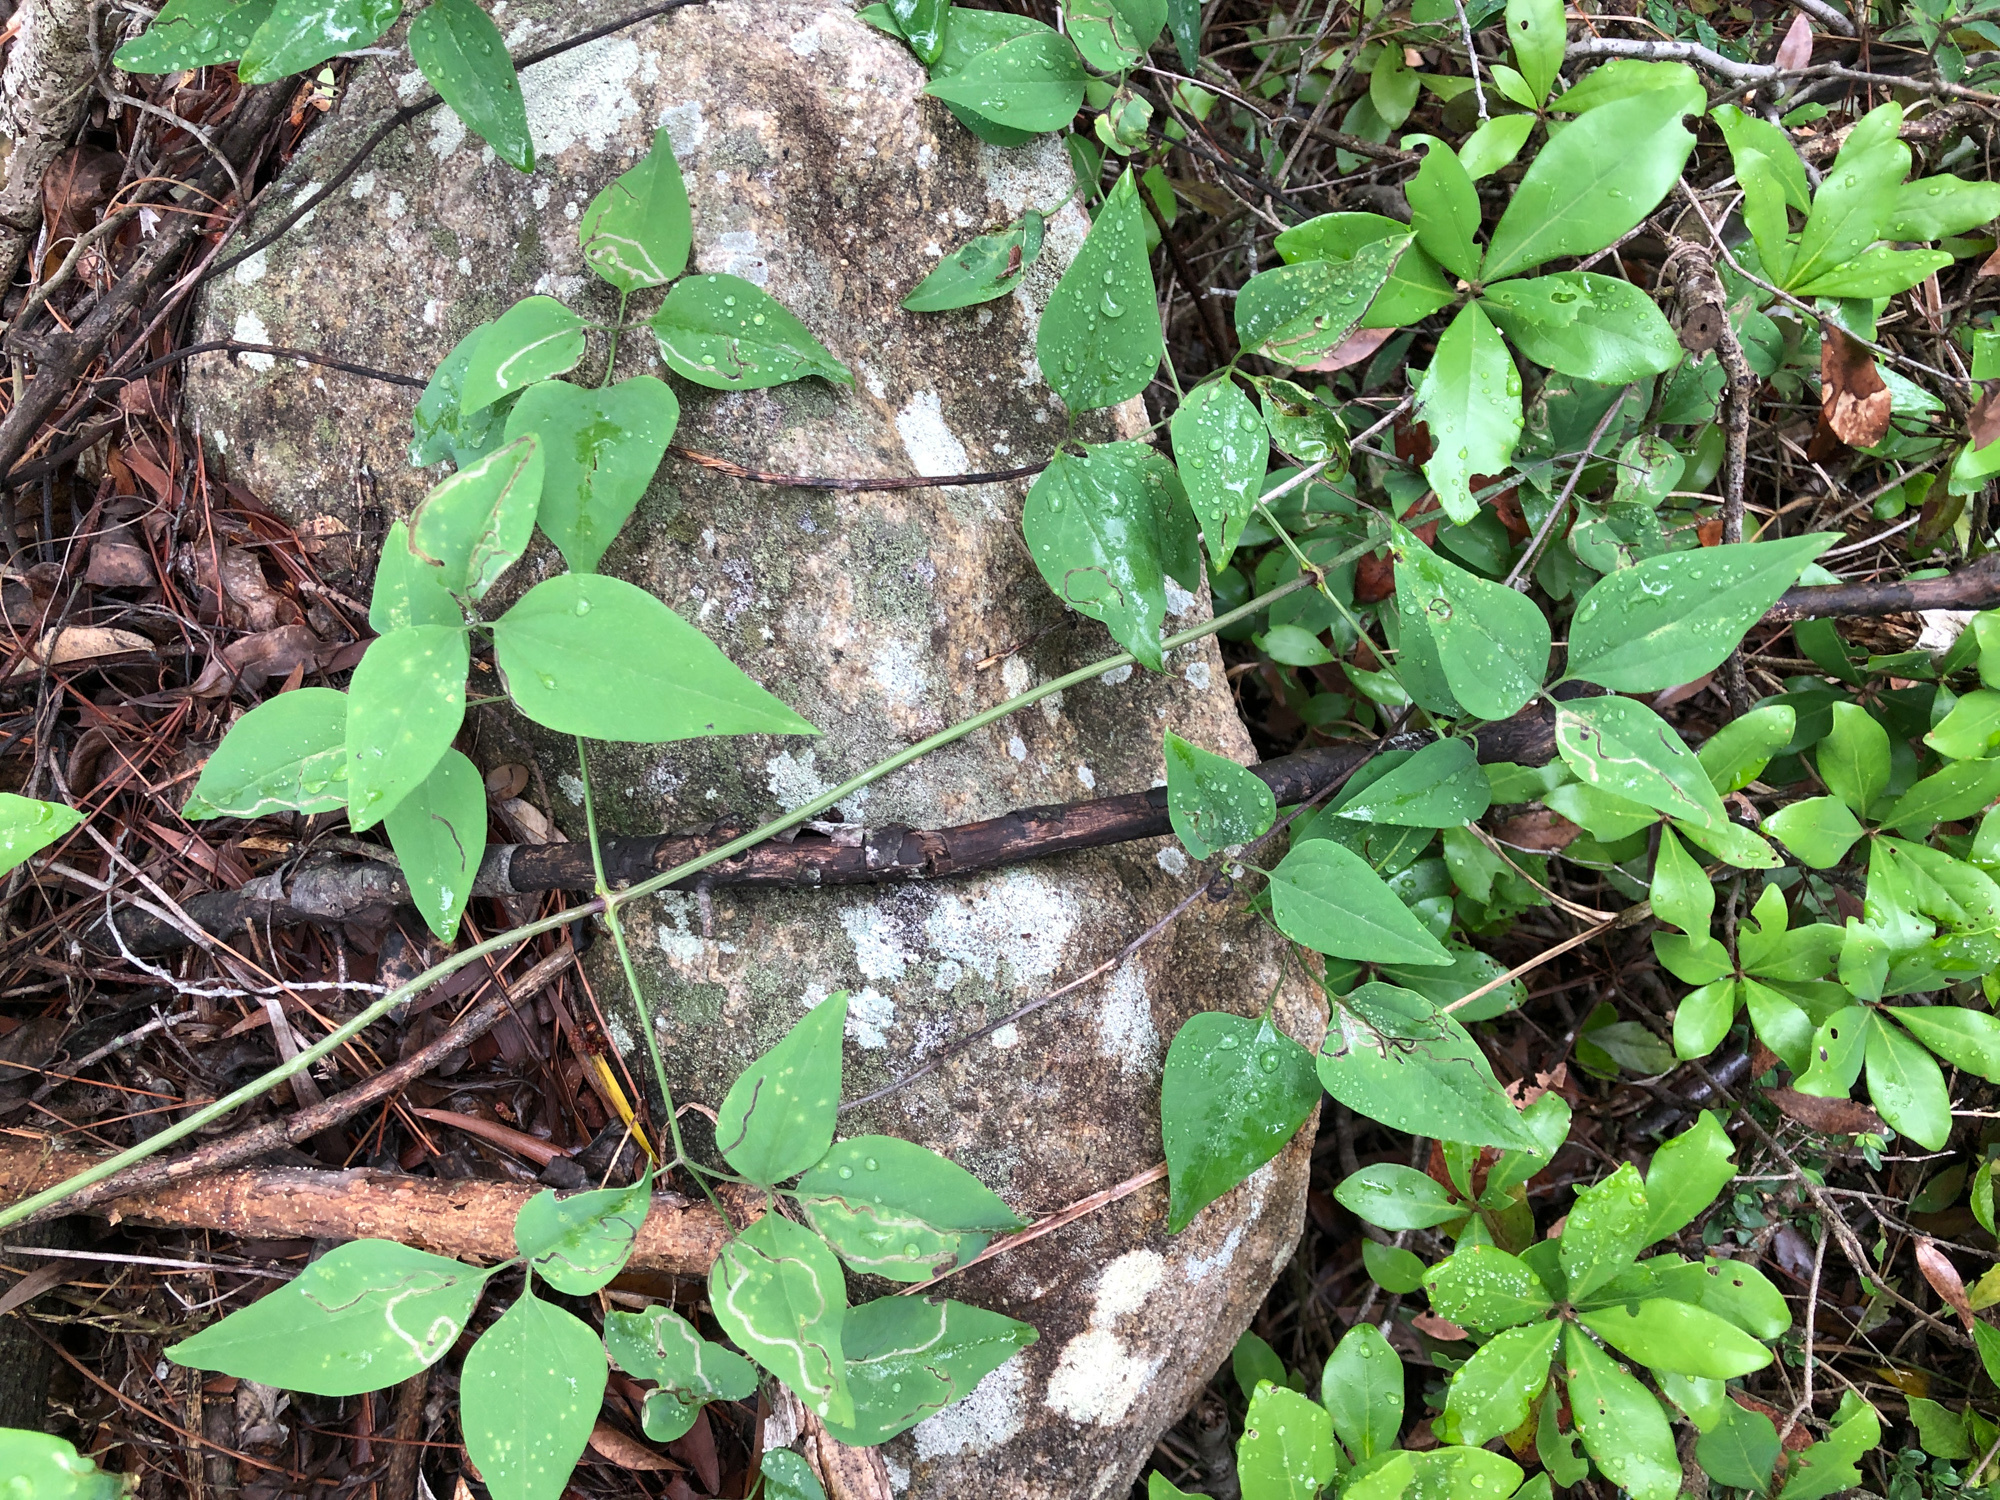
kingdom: Plantae
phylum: Tracheophyta
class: Magnoliopsida
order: Ranunculales
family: Ranunculaceae
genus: Clematis
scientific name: Clematis chinensis
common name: Chinese clematis
